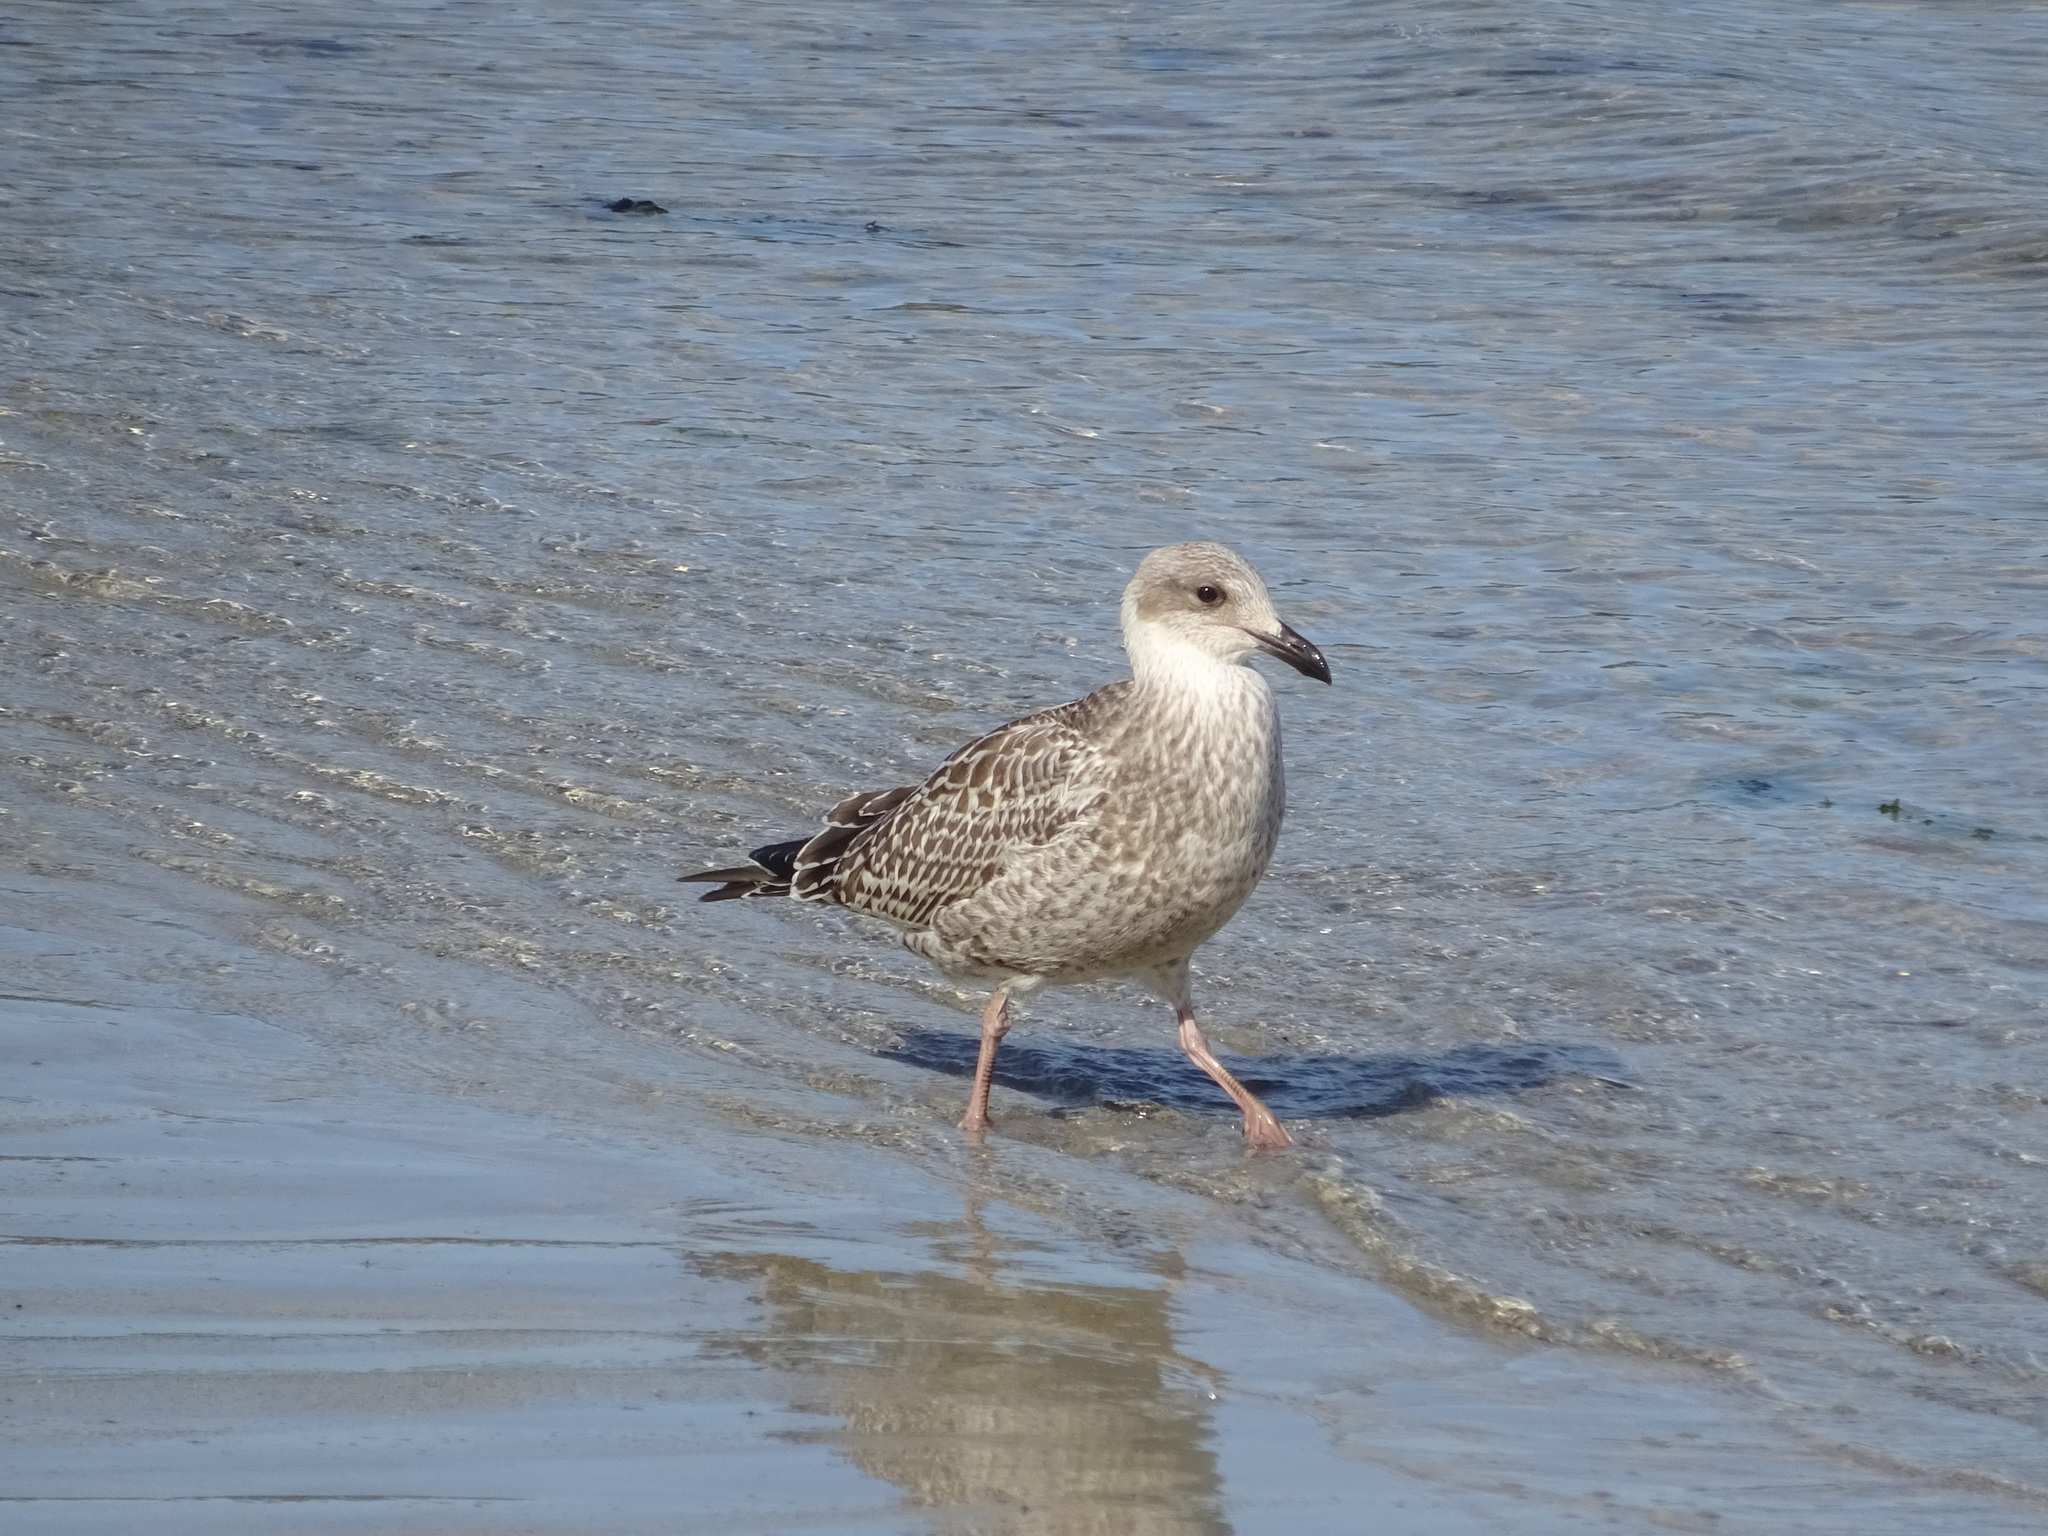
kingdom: Animalia
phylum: Chordata
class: Aves
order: Charadriiformes
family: Laridae
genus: Larus
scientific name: Larus argentatus
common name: Herring gull
